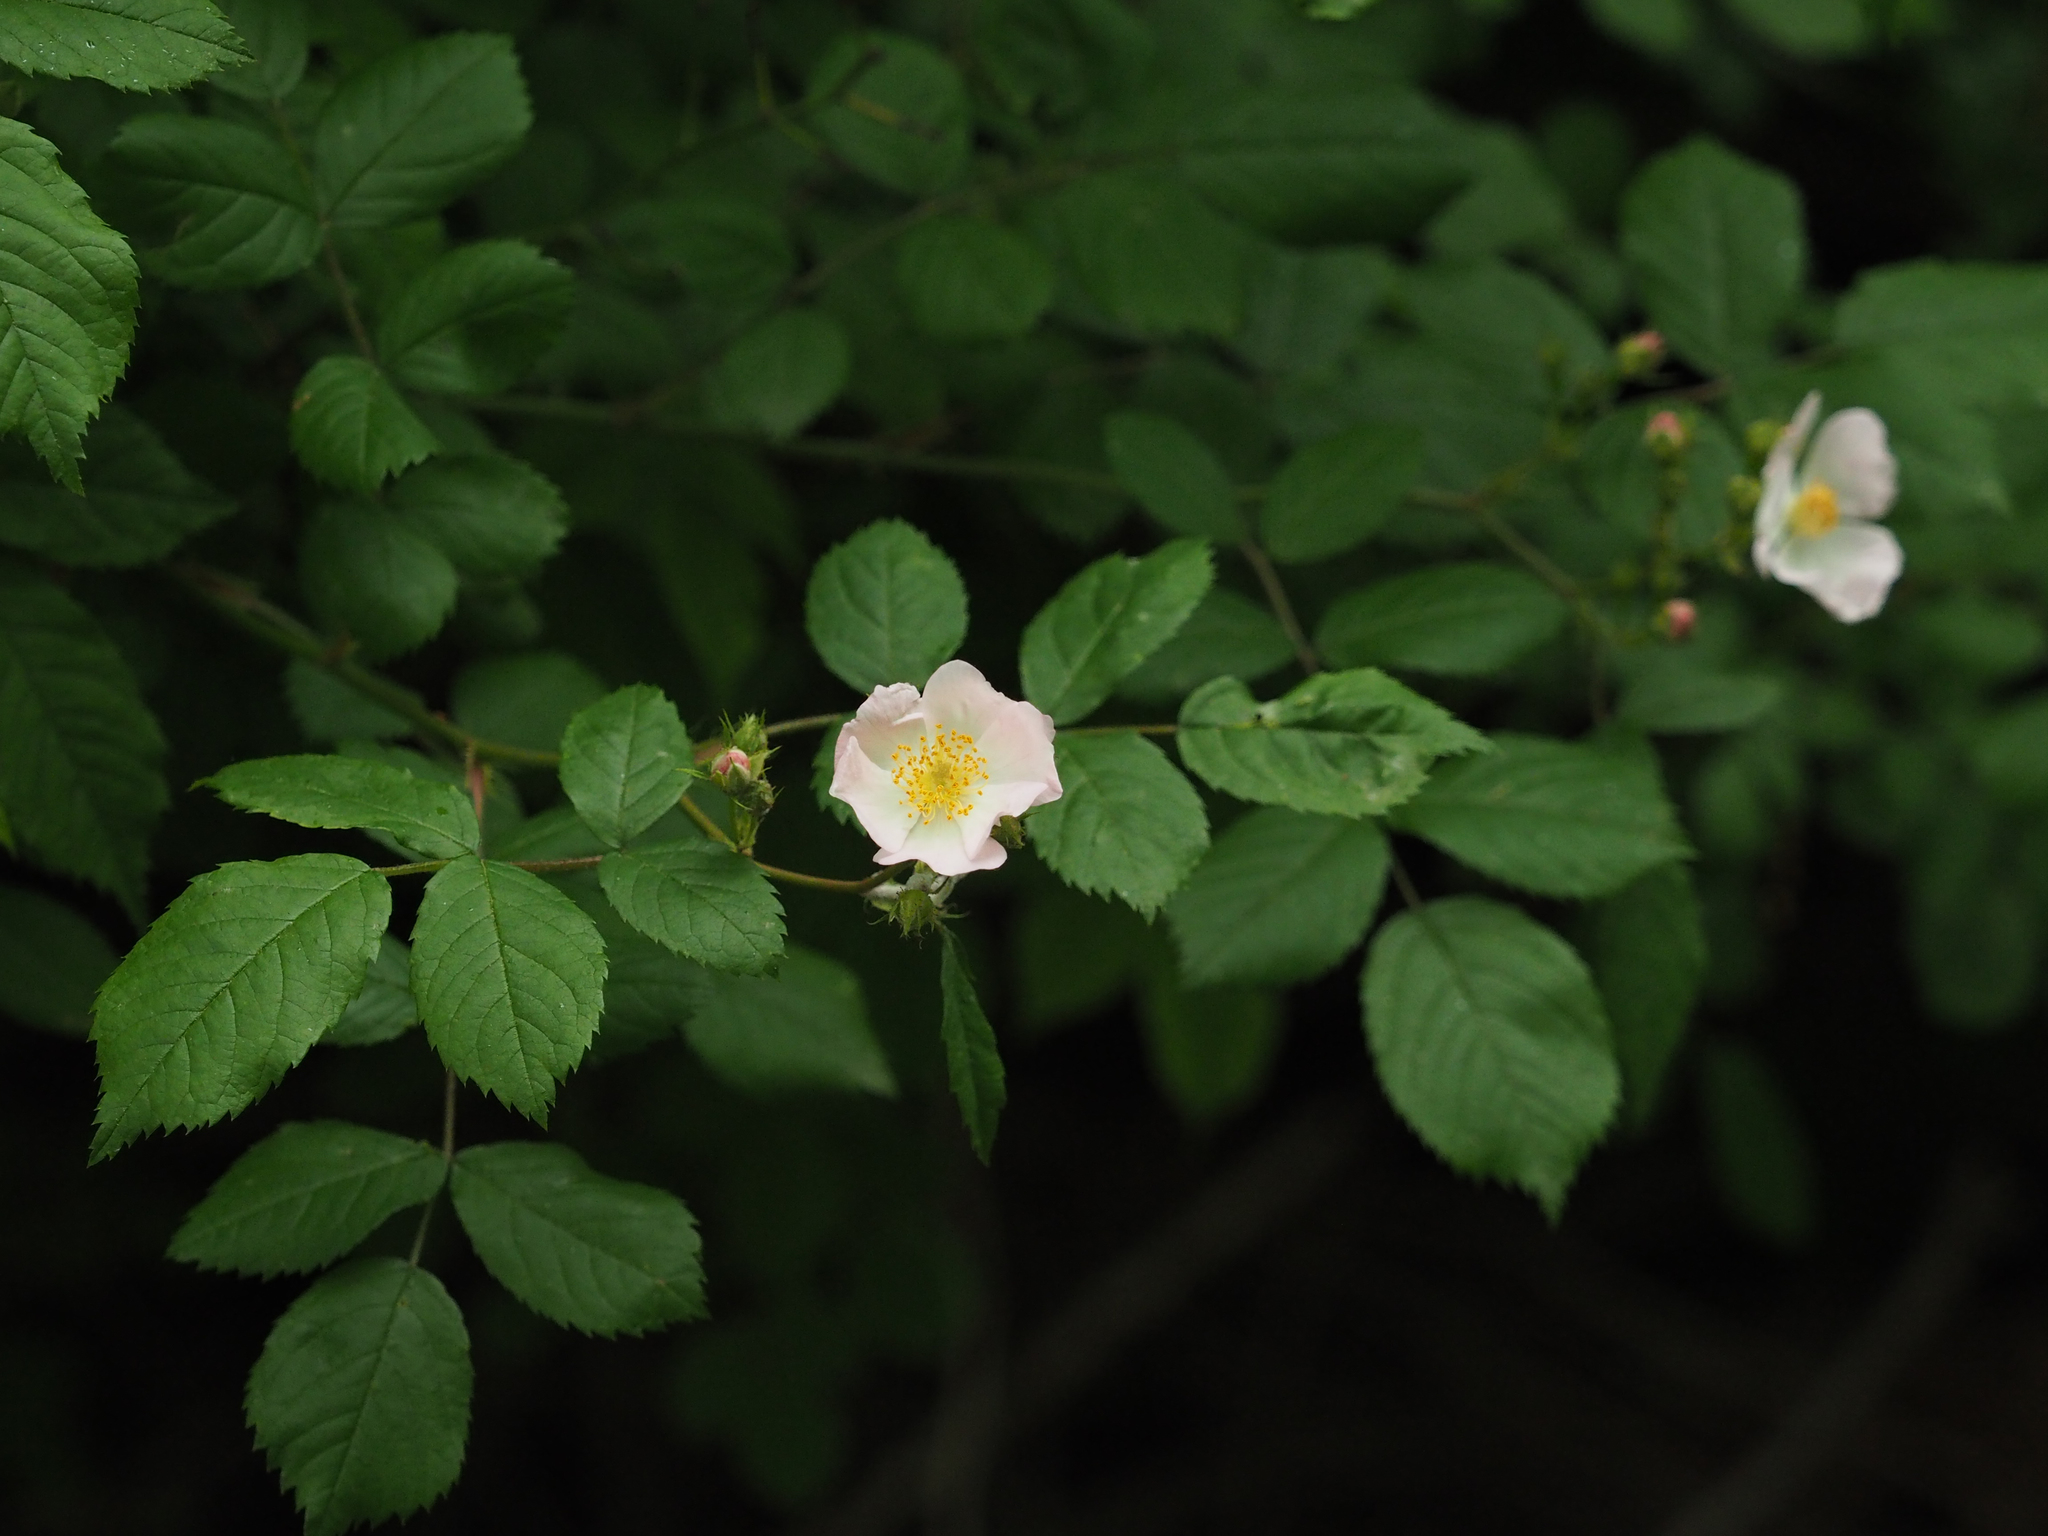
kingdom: Plantae
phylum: Tracheophyta
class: Magnoliopsida
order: Rosales
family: Rosaceae
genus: Rosa
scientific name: Rosa multiflora
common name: Multiflora rose
